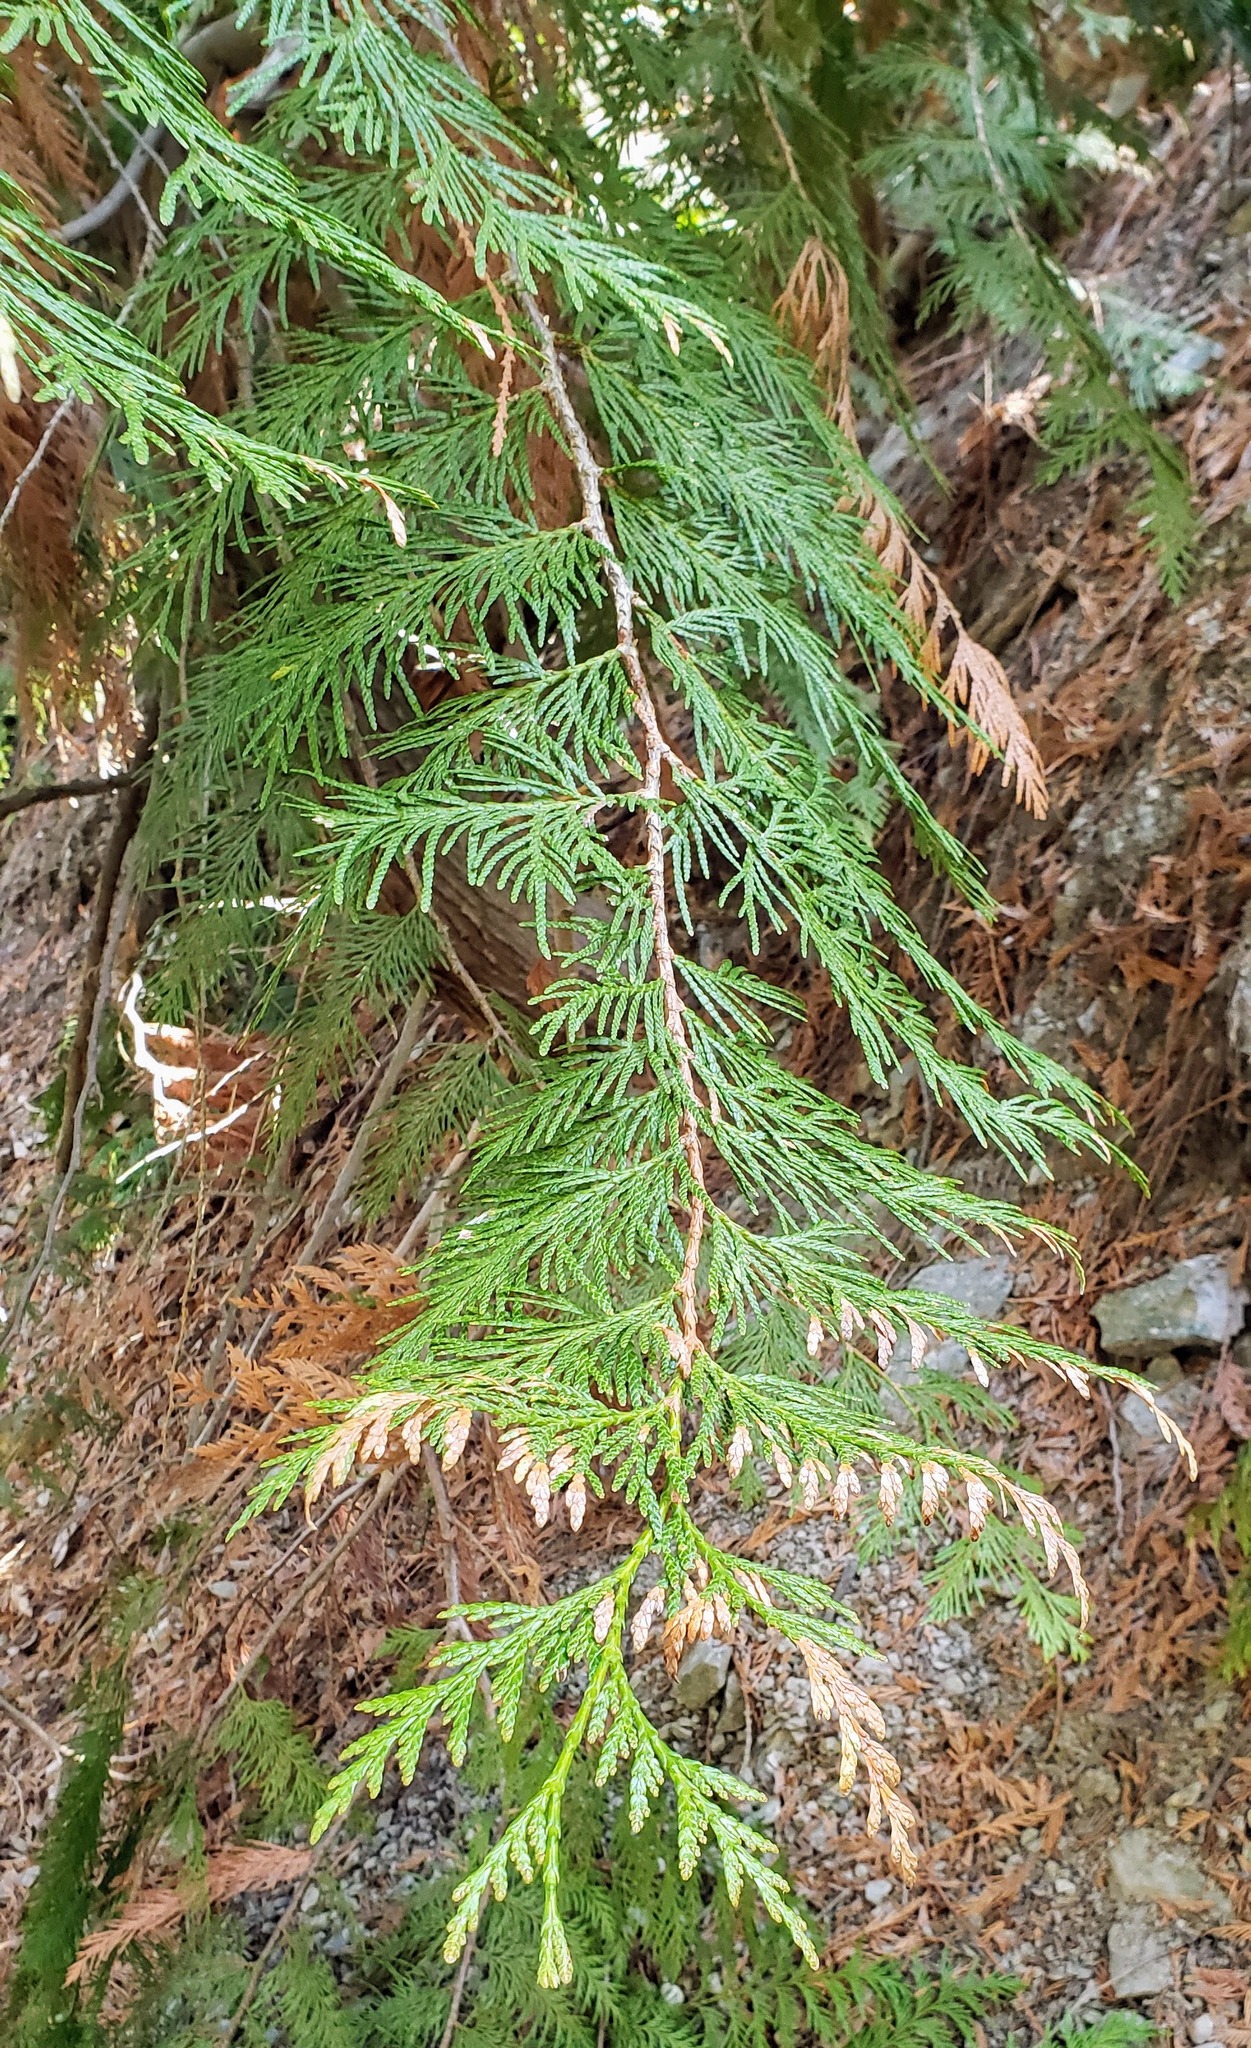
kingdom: Plantae
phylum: Tracheophyta
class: Pinopsida
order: Pinales
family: Cupressaceae
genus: Thuja
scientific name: Thuja plicata
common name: Western red-cedar
